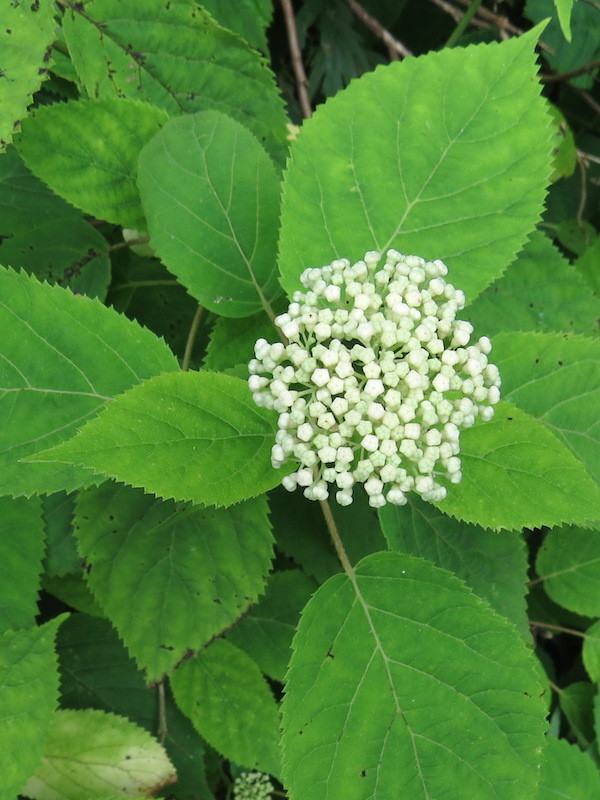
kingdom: Plantae
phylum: Tracheophyta
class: Magnoliopsida
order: Cornales
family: Hydrangeaceae
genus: Hydrangea
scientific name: Hydrangea arborescens
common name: Sevenbark
